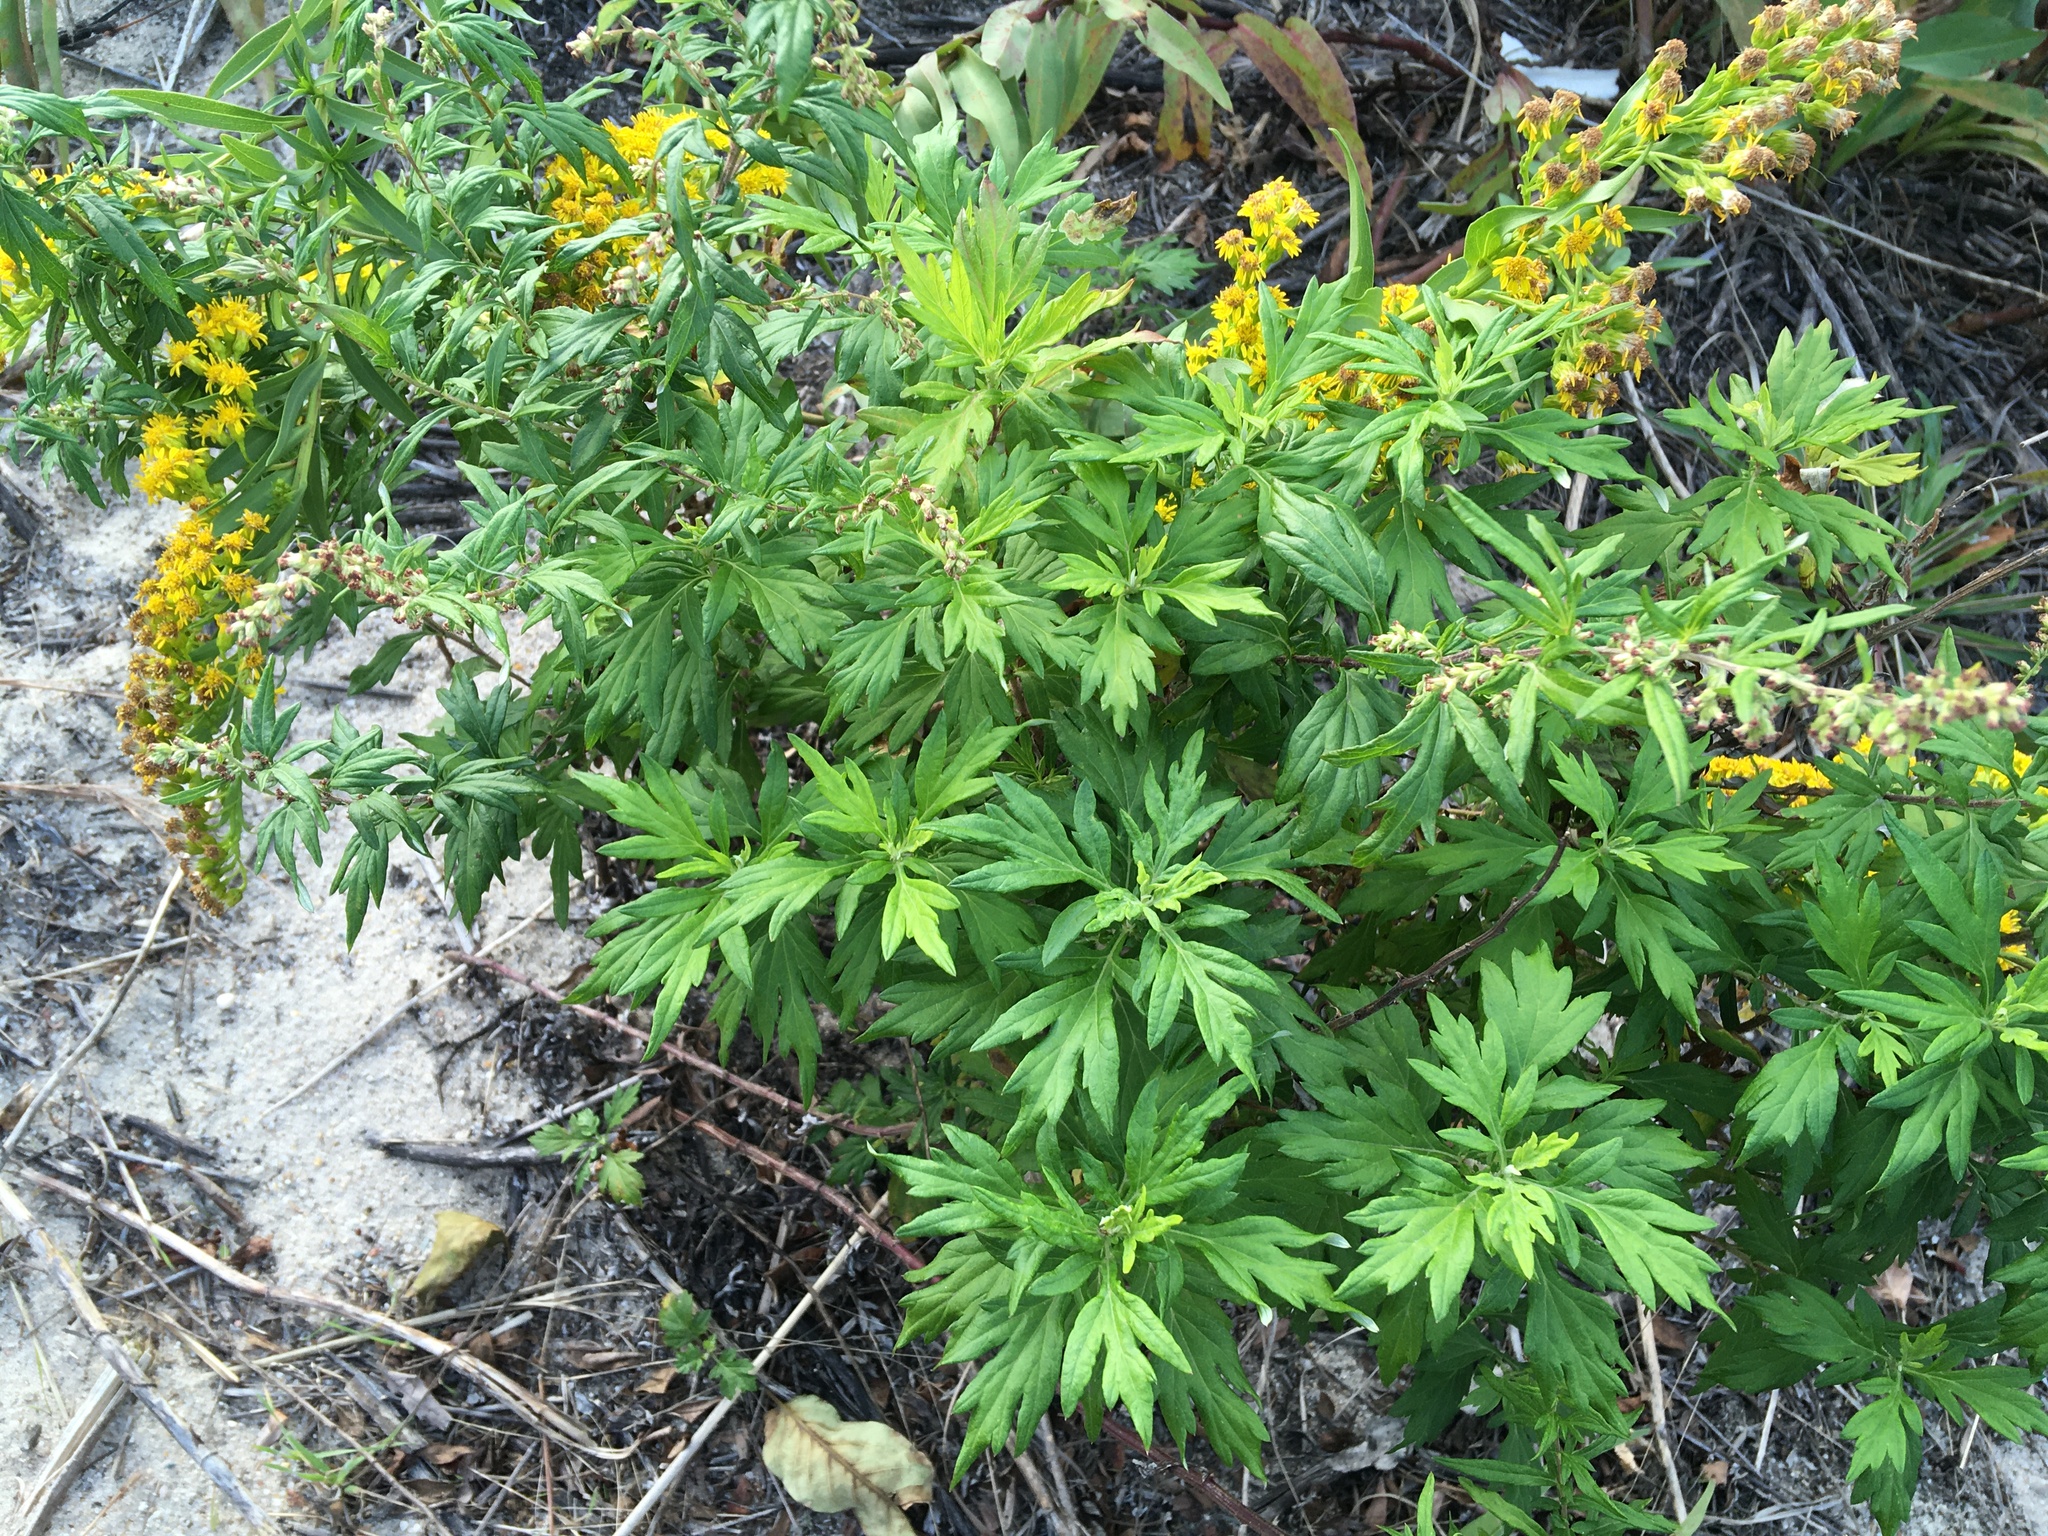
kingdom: Plantae
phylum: Tracheophyta
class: Magnoliopsida
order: Asterales
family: Asteraceae
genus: Artemisia
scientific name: Artemisia vulgaris
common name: Mugwort
